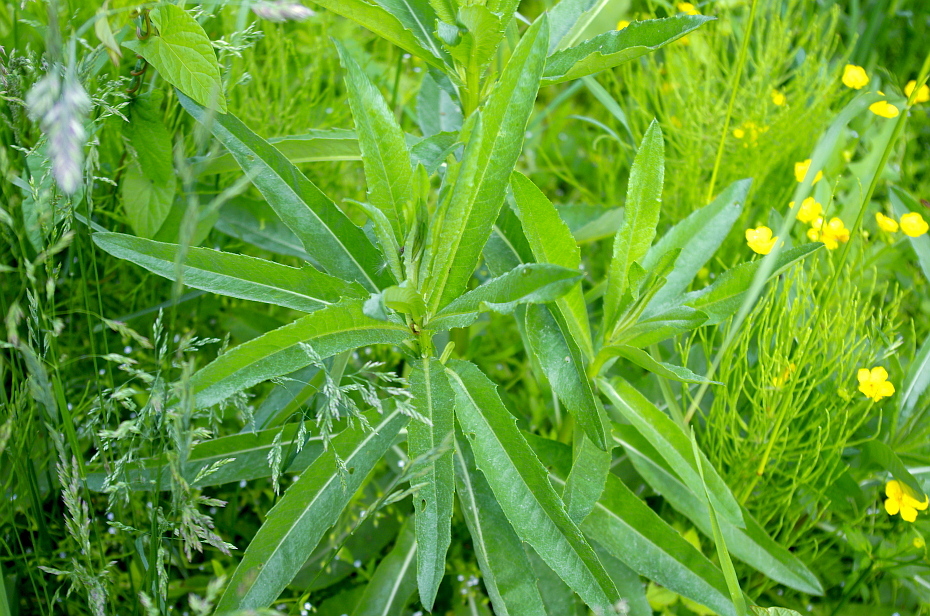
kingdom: Plantae
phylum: Tracheophyta
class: Magnoliopsida
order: Asterales
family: Asteraceae
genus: Cirsium
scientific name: Cirsium arvense
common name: Creeping thistle
